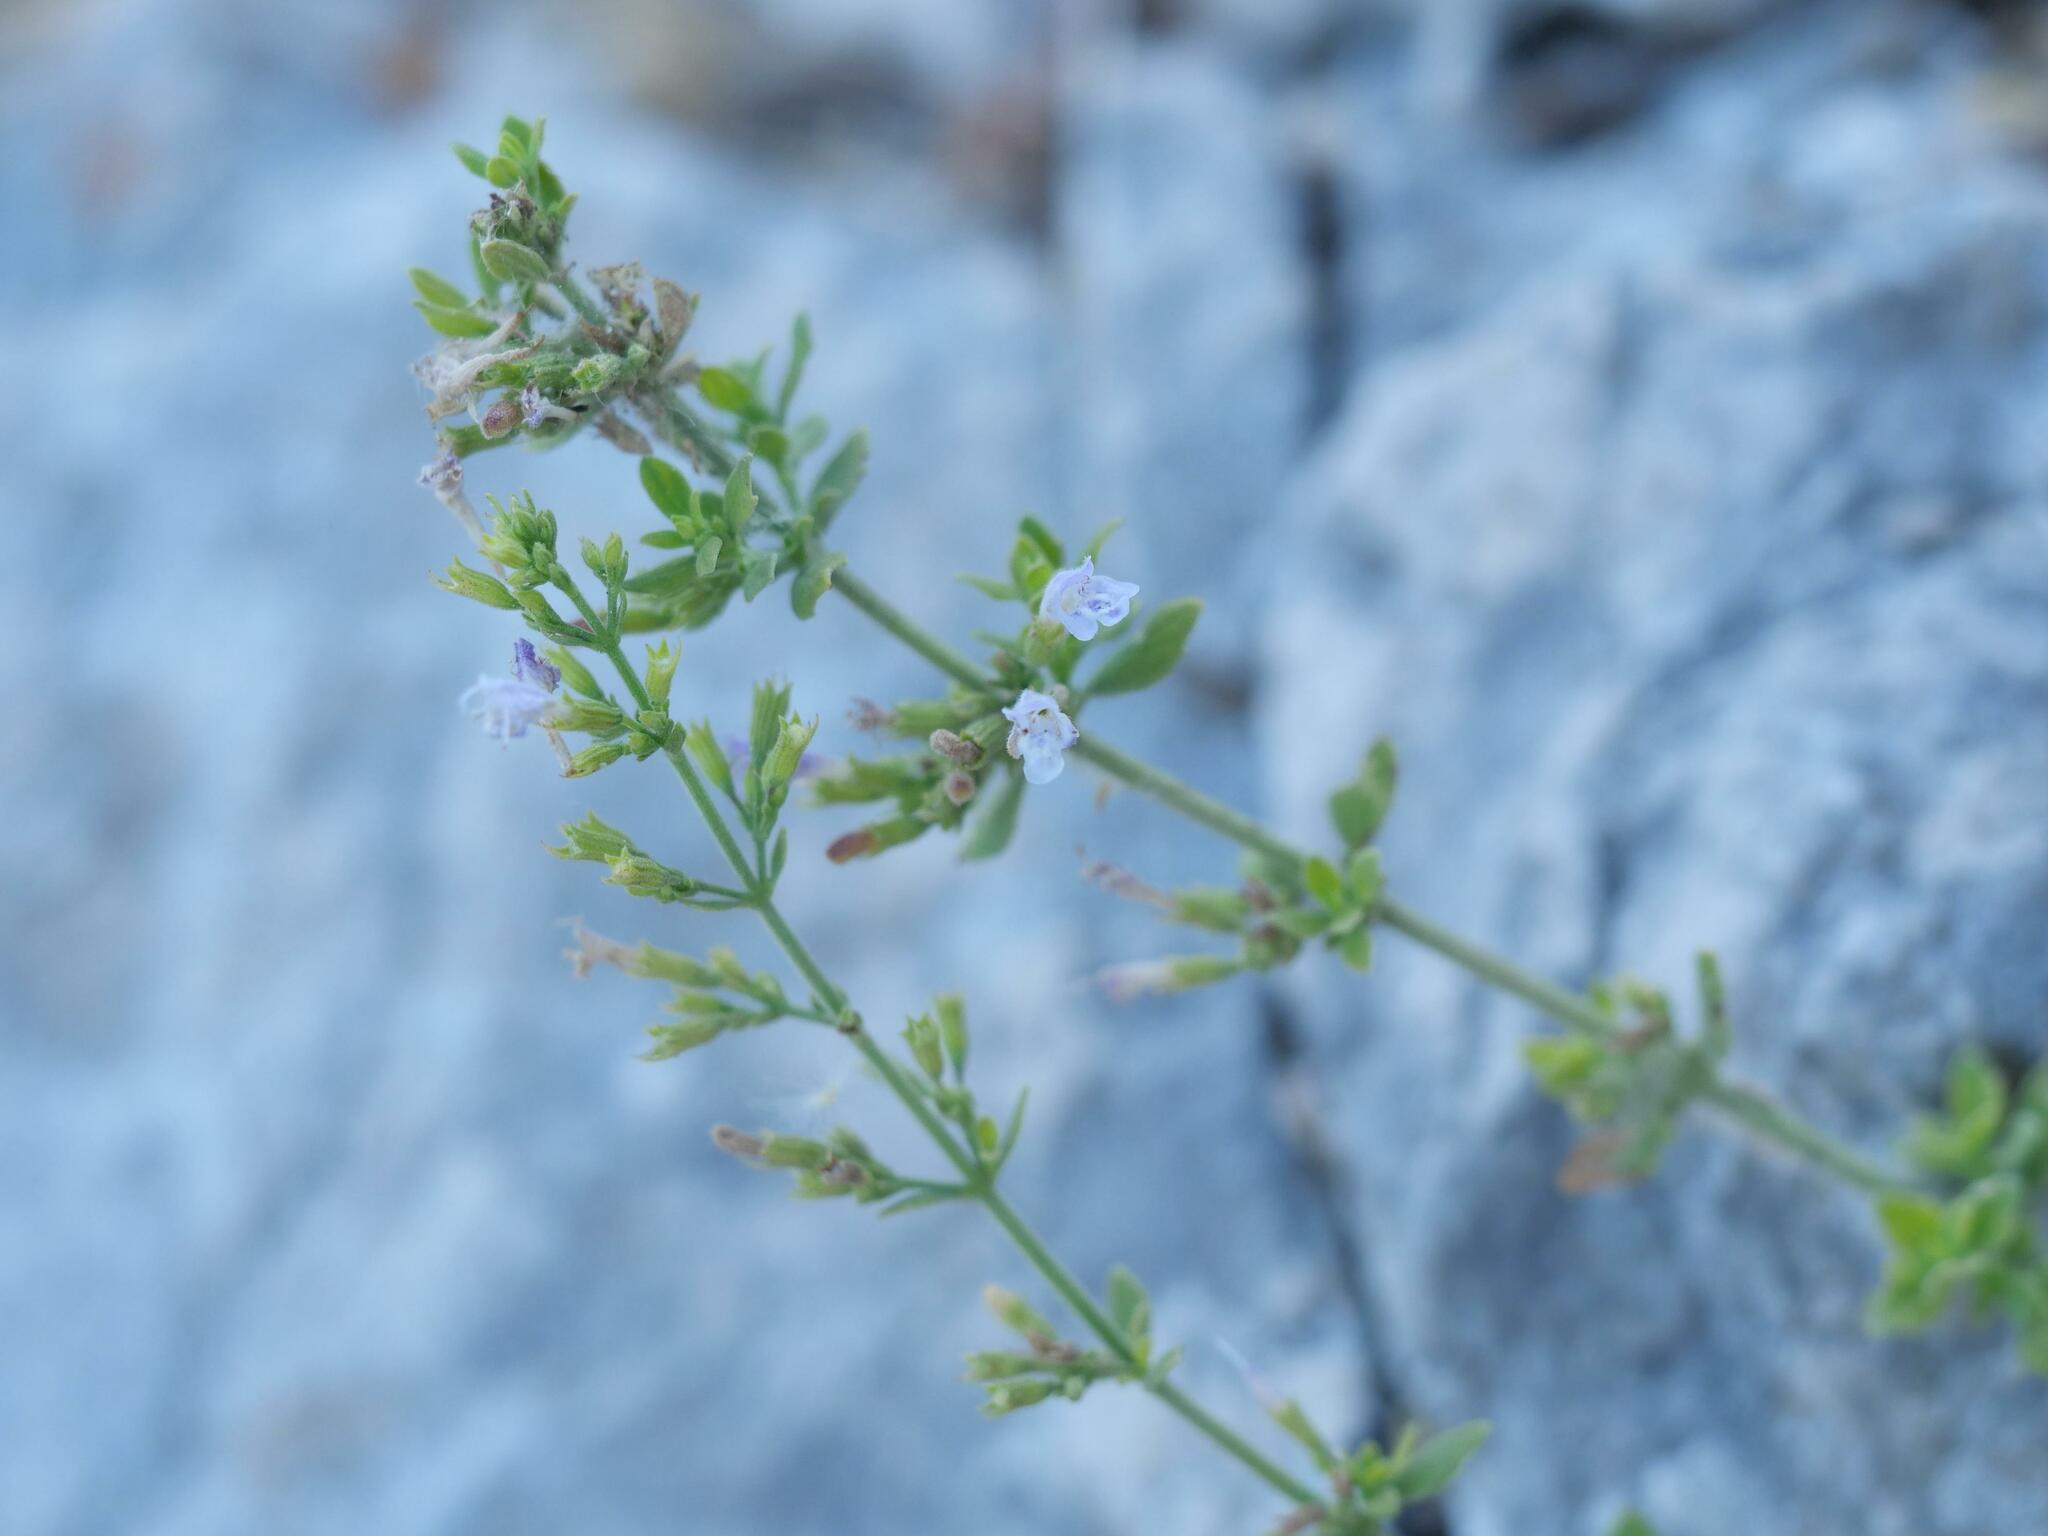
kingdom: Plantae
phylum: Tracheophyta
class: Magnoliopsida
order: Lamiales
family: Lamiaceae
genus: Clinopodium
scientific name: Clinopodium nepeta
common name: Lesser calamint
